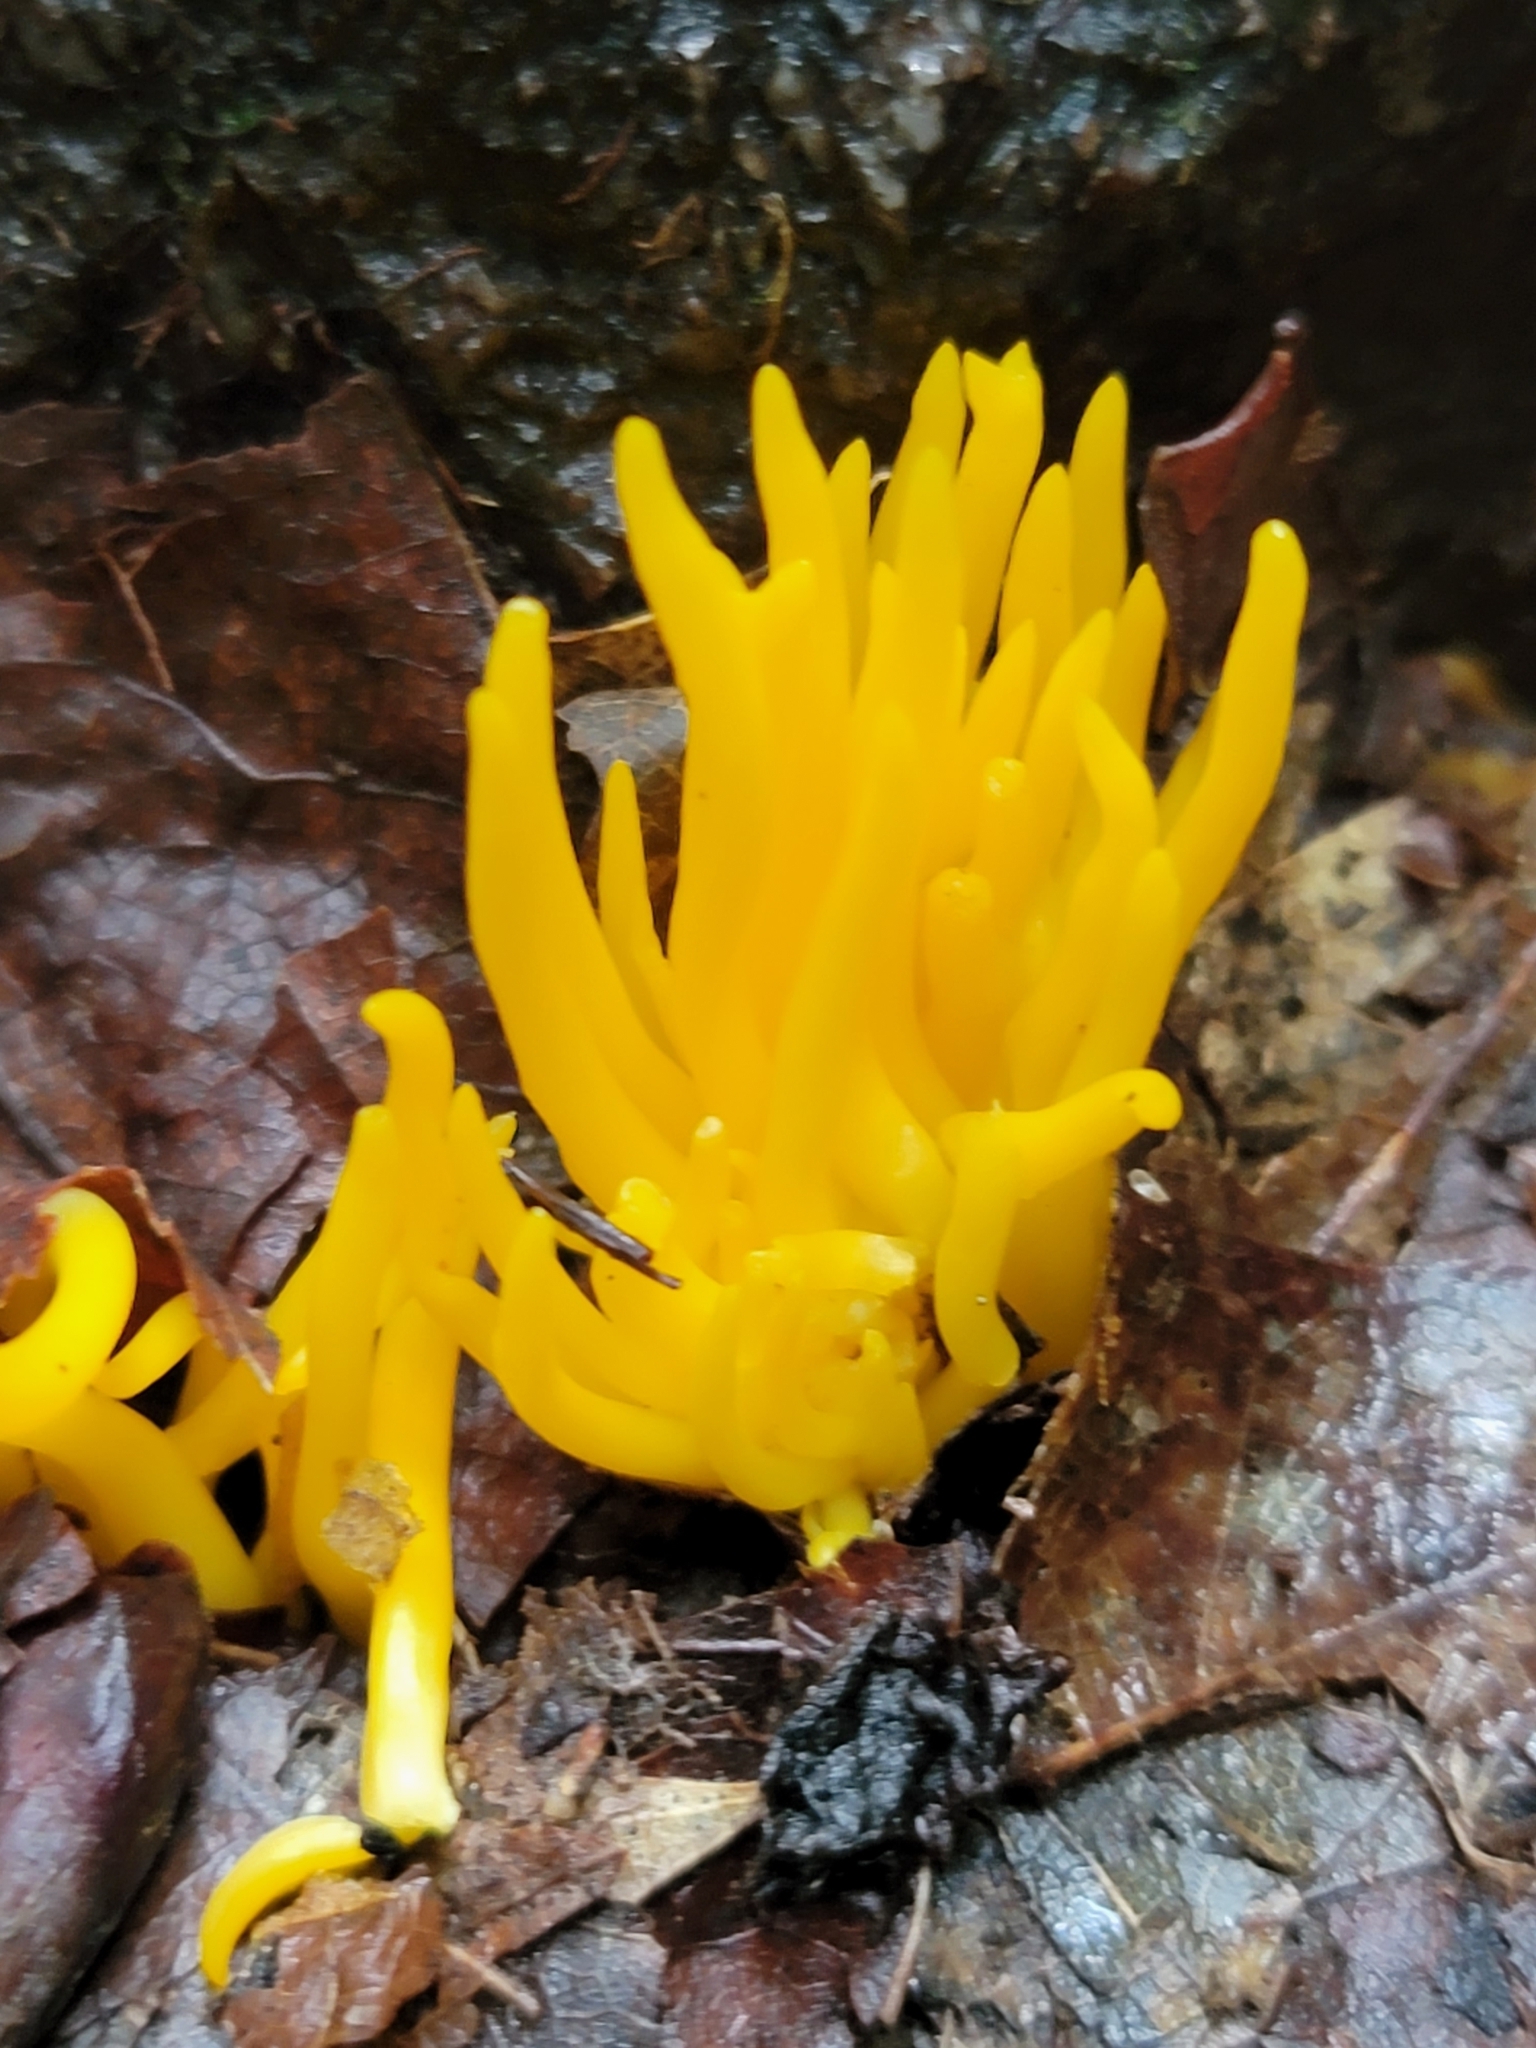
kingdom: Fungi
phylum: Basidiomycota
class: Agaricomycetes
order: Agaricales
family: Clavariaceae
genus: Clavulinopsis
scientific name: Clavulinopsis fusiformis
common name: Golden spindles
